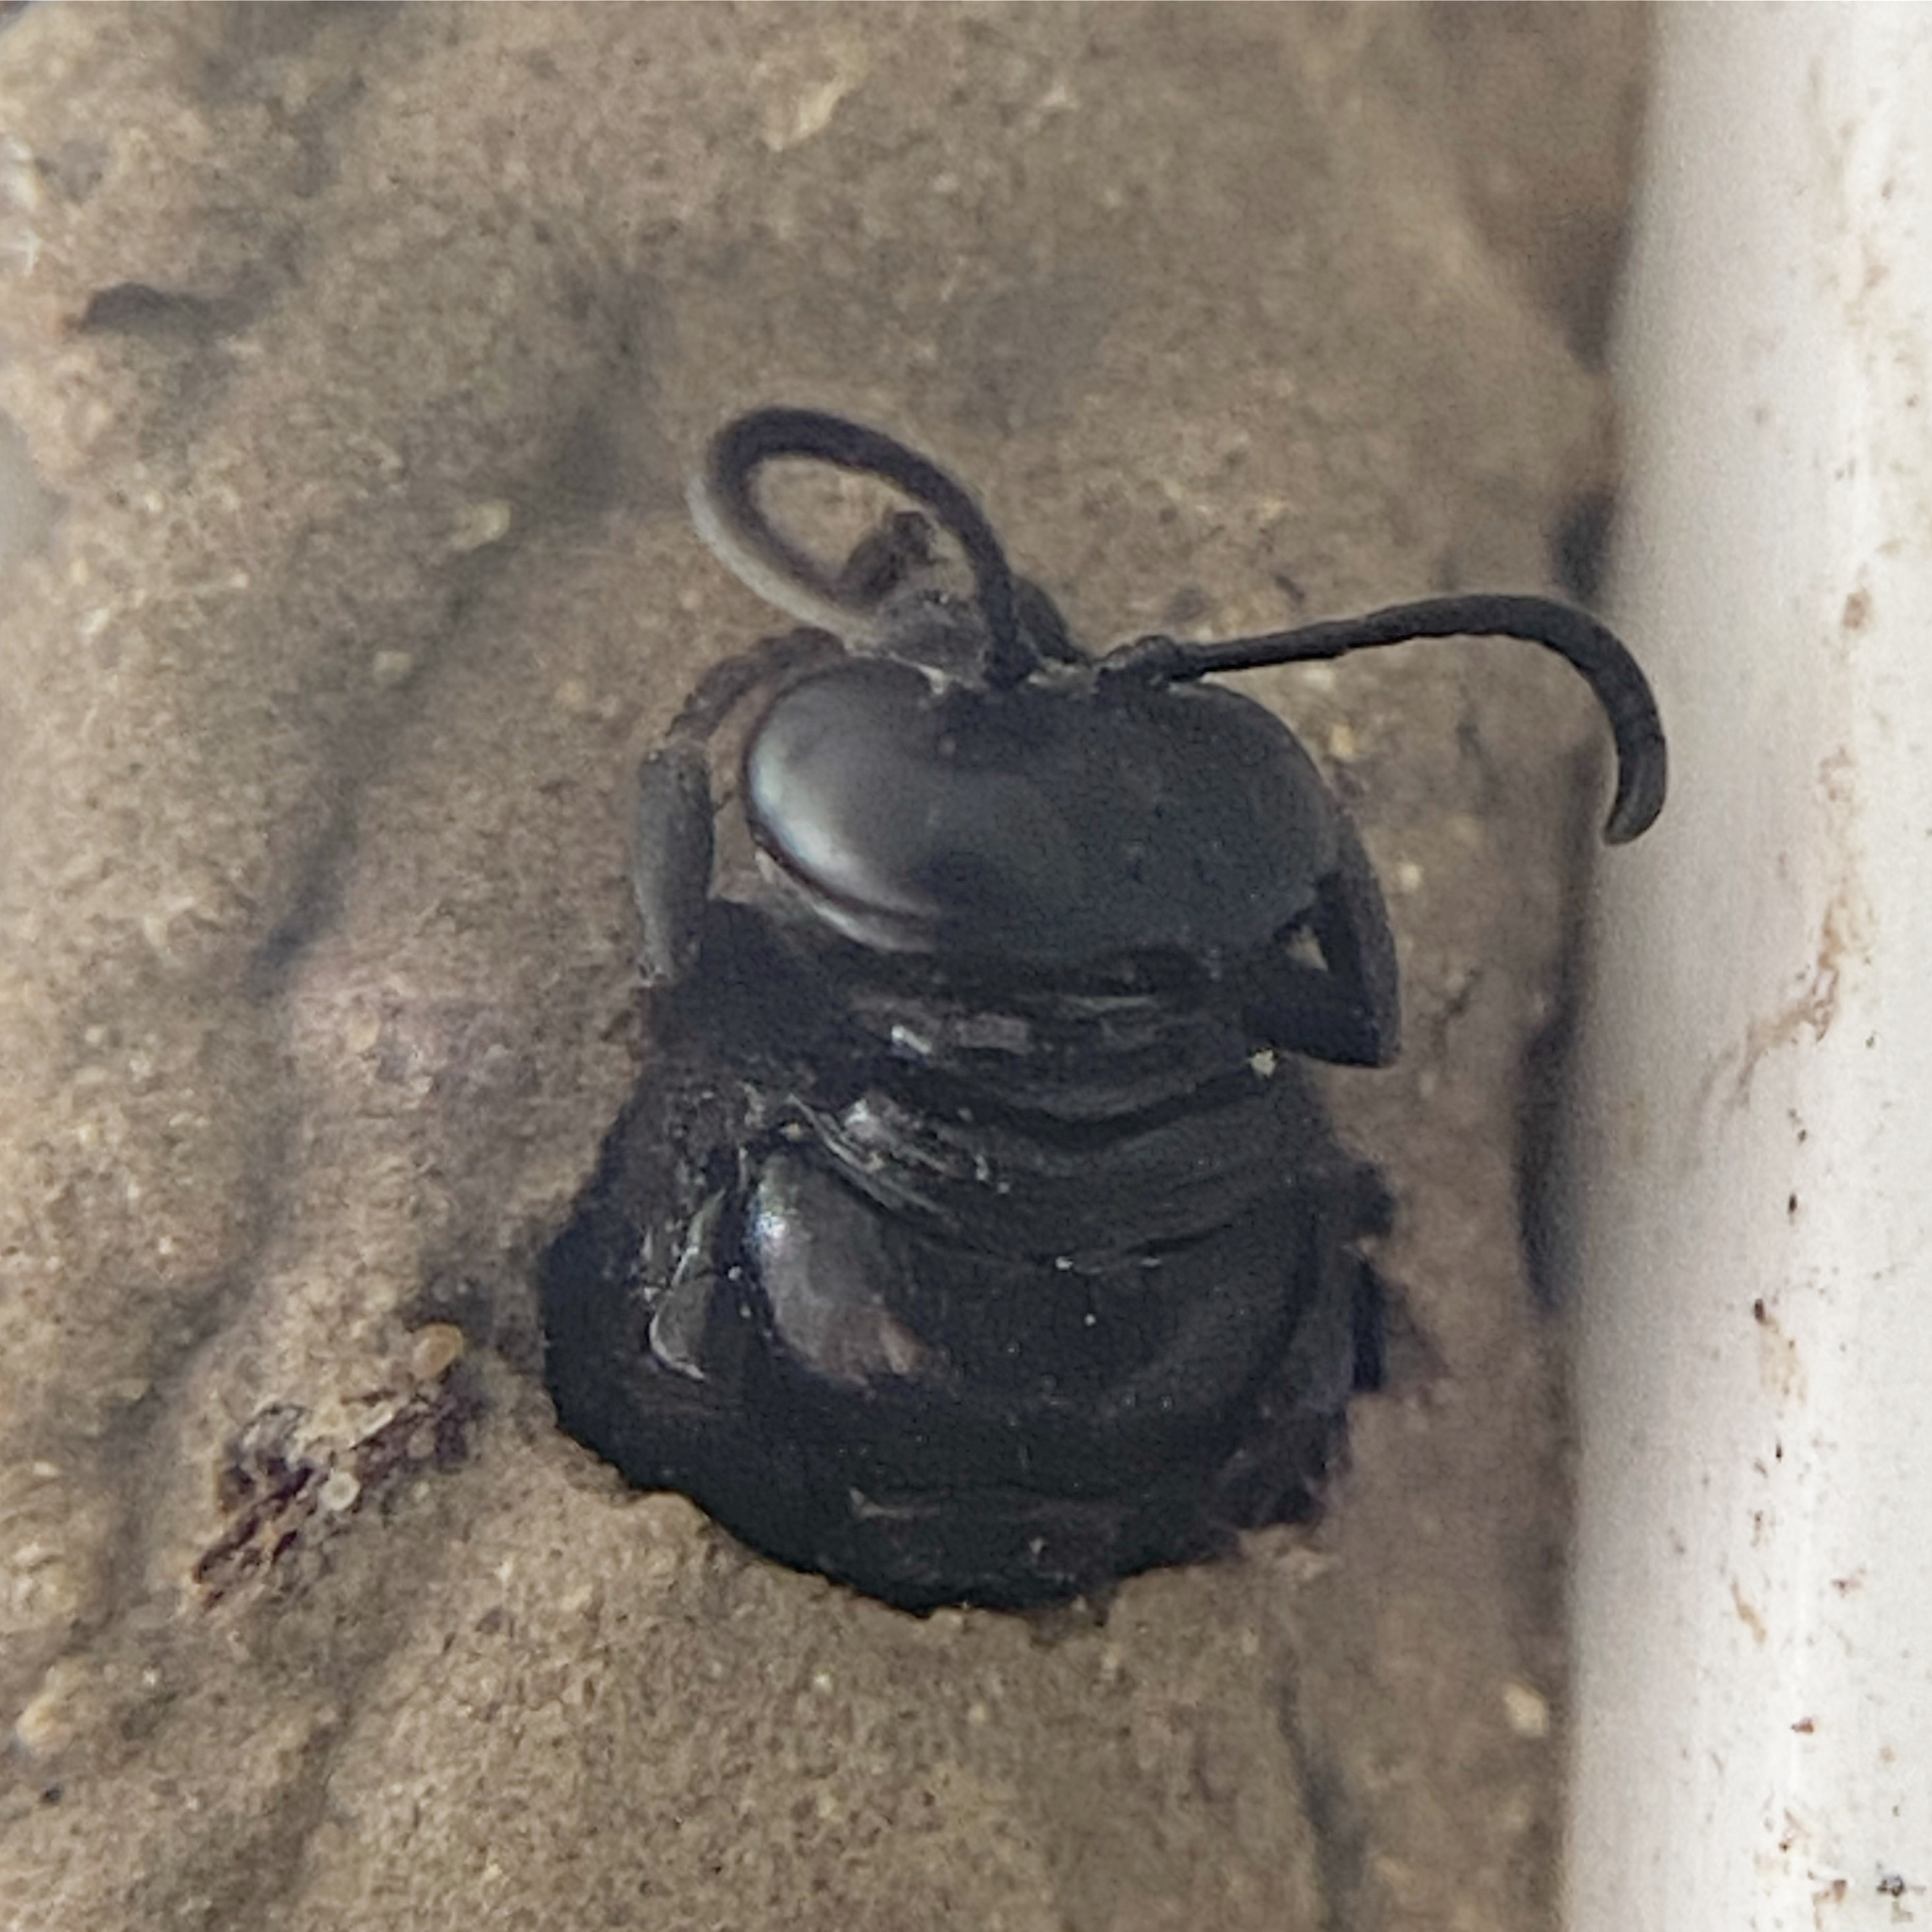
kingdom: Animalia
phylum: Arthropoda
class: Insecta
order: Hymenoptera
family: Crabronidae
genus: Trypoxylon
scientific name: Trypoxylon politum
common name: Organ-pipe mud-dauber wasp
